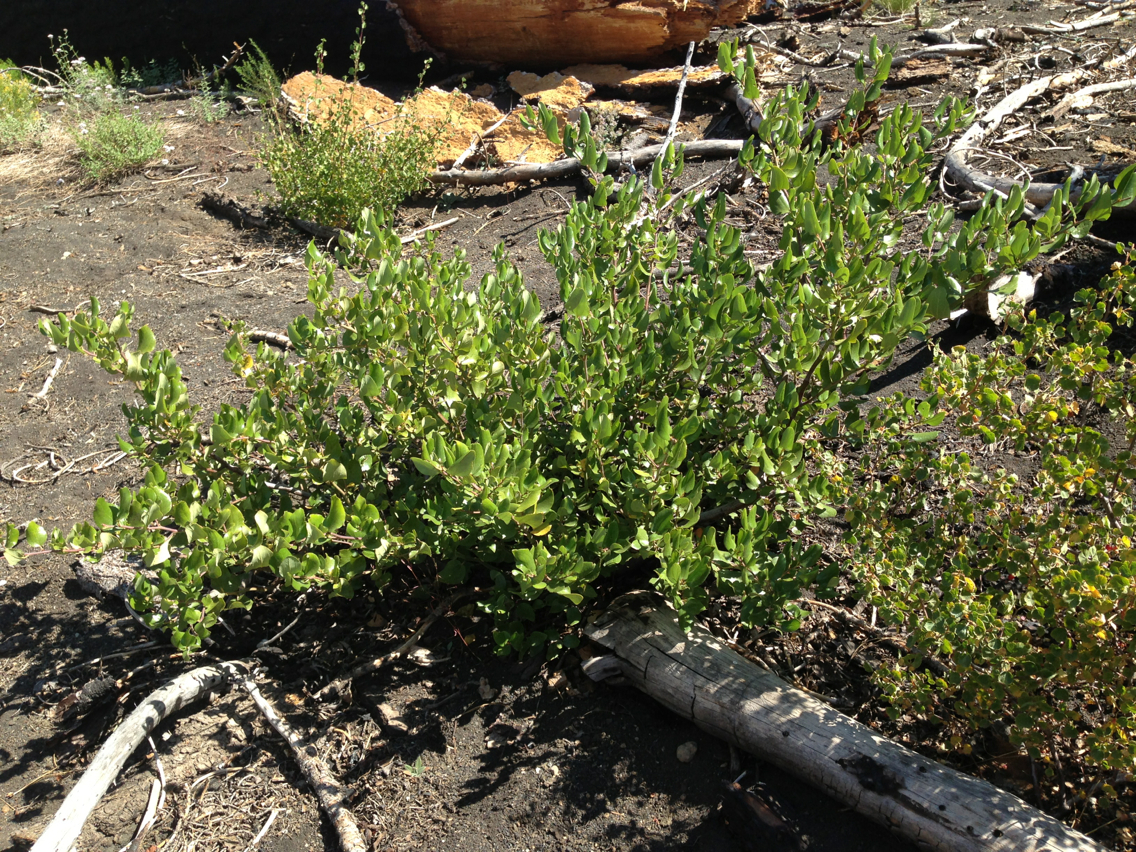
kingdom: Plantae
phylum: Tracheophyta
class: Magnoliopsida
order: Rosales
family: Rhamnaceae
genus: Ceanothus
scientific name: Ceanothus velutinus
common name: Snowbrush
